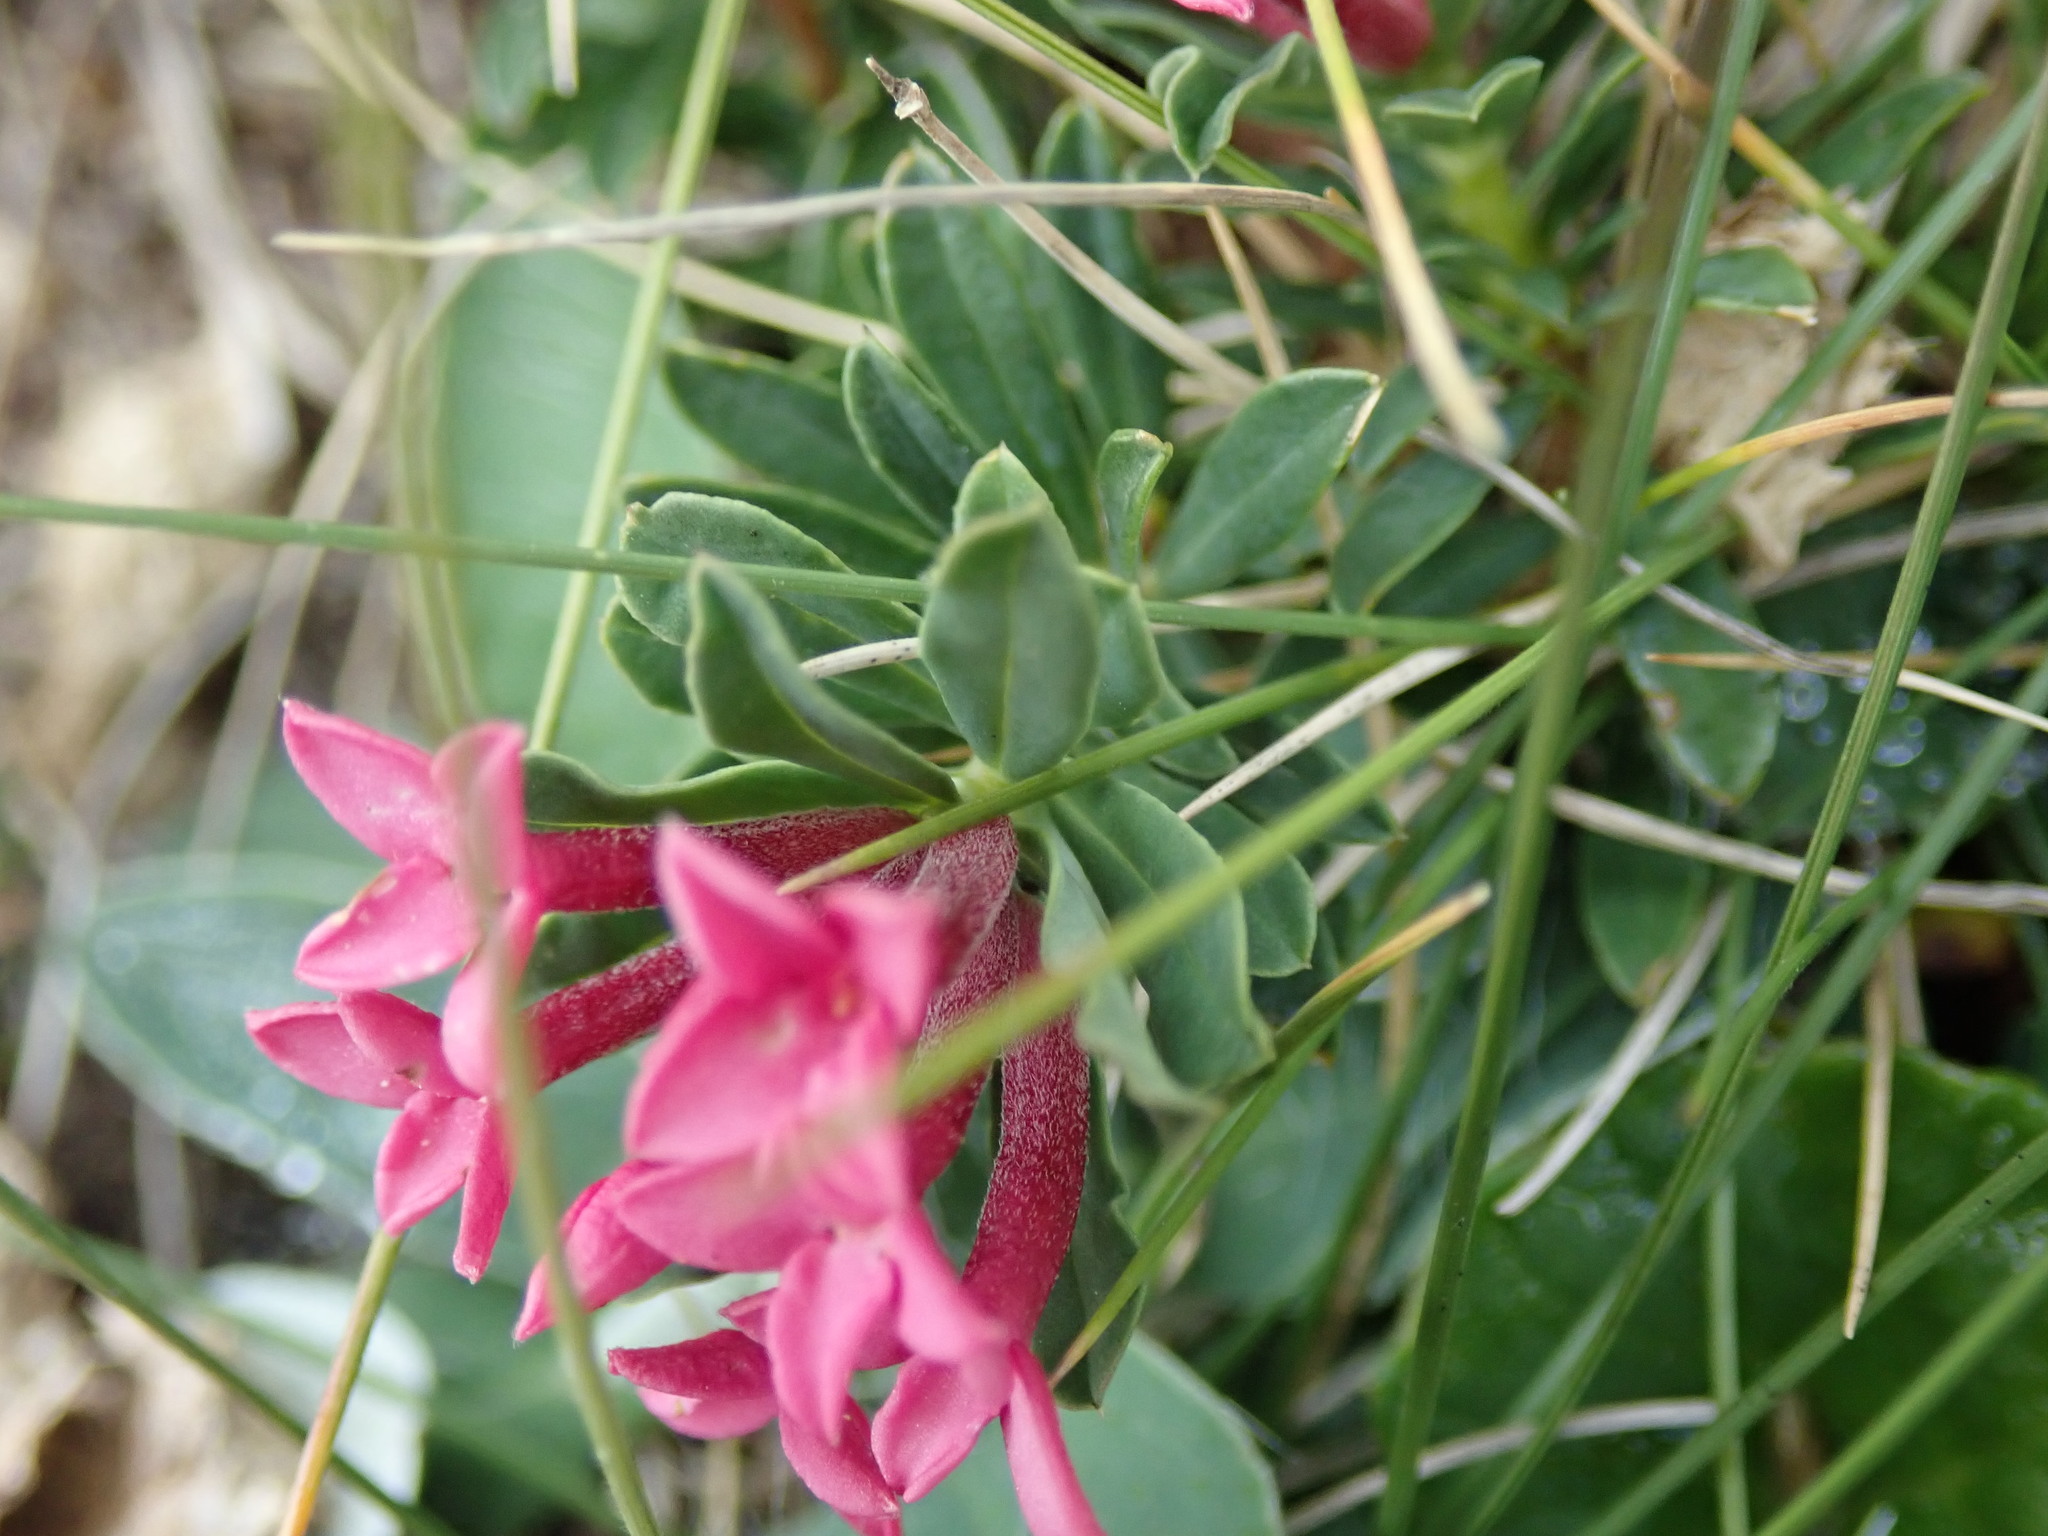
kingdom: Plantae
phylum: Tracheophyta
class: Magnoliopsida
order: Malvales
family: Thymelaeaceae
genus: Daphne
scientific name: Daphne cneorum
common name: Garland-flower
